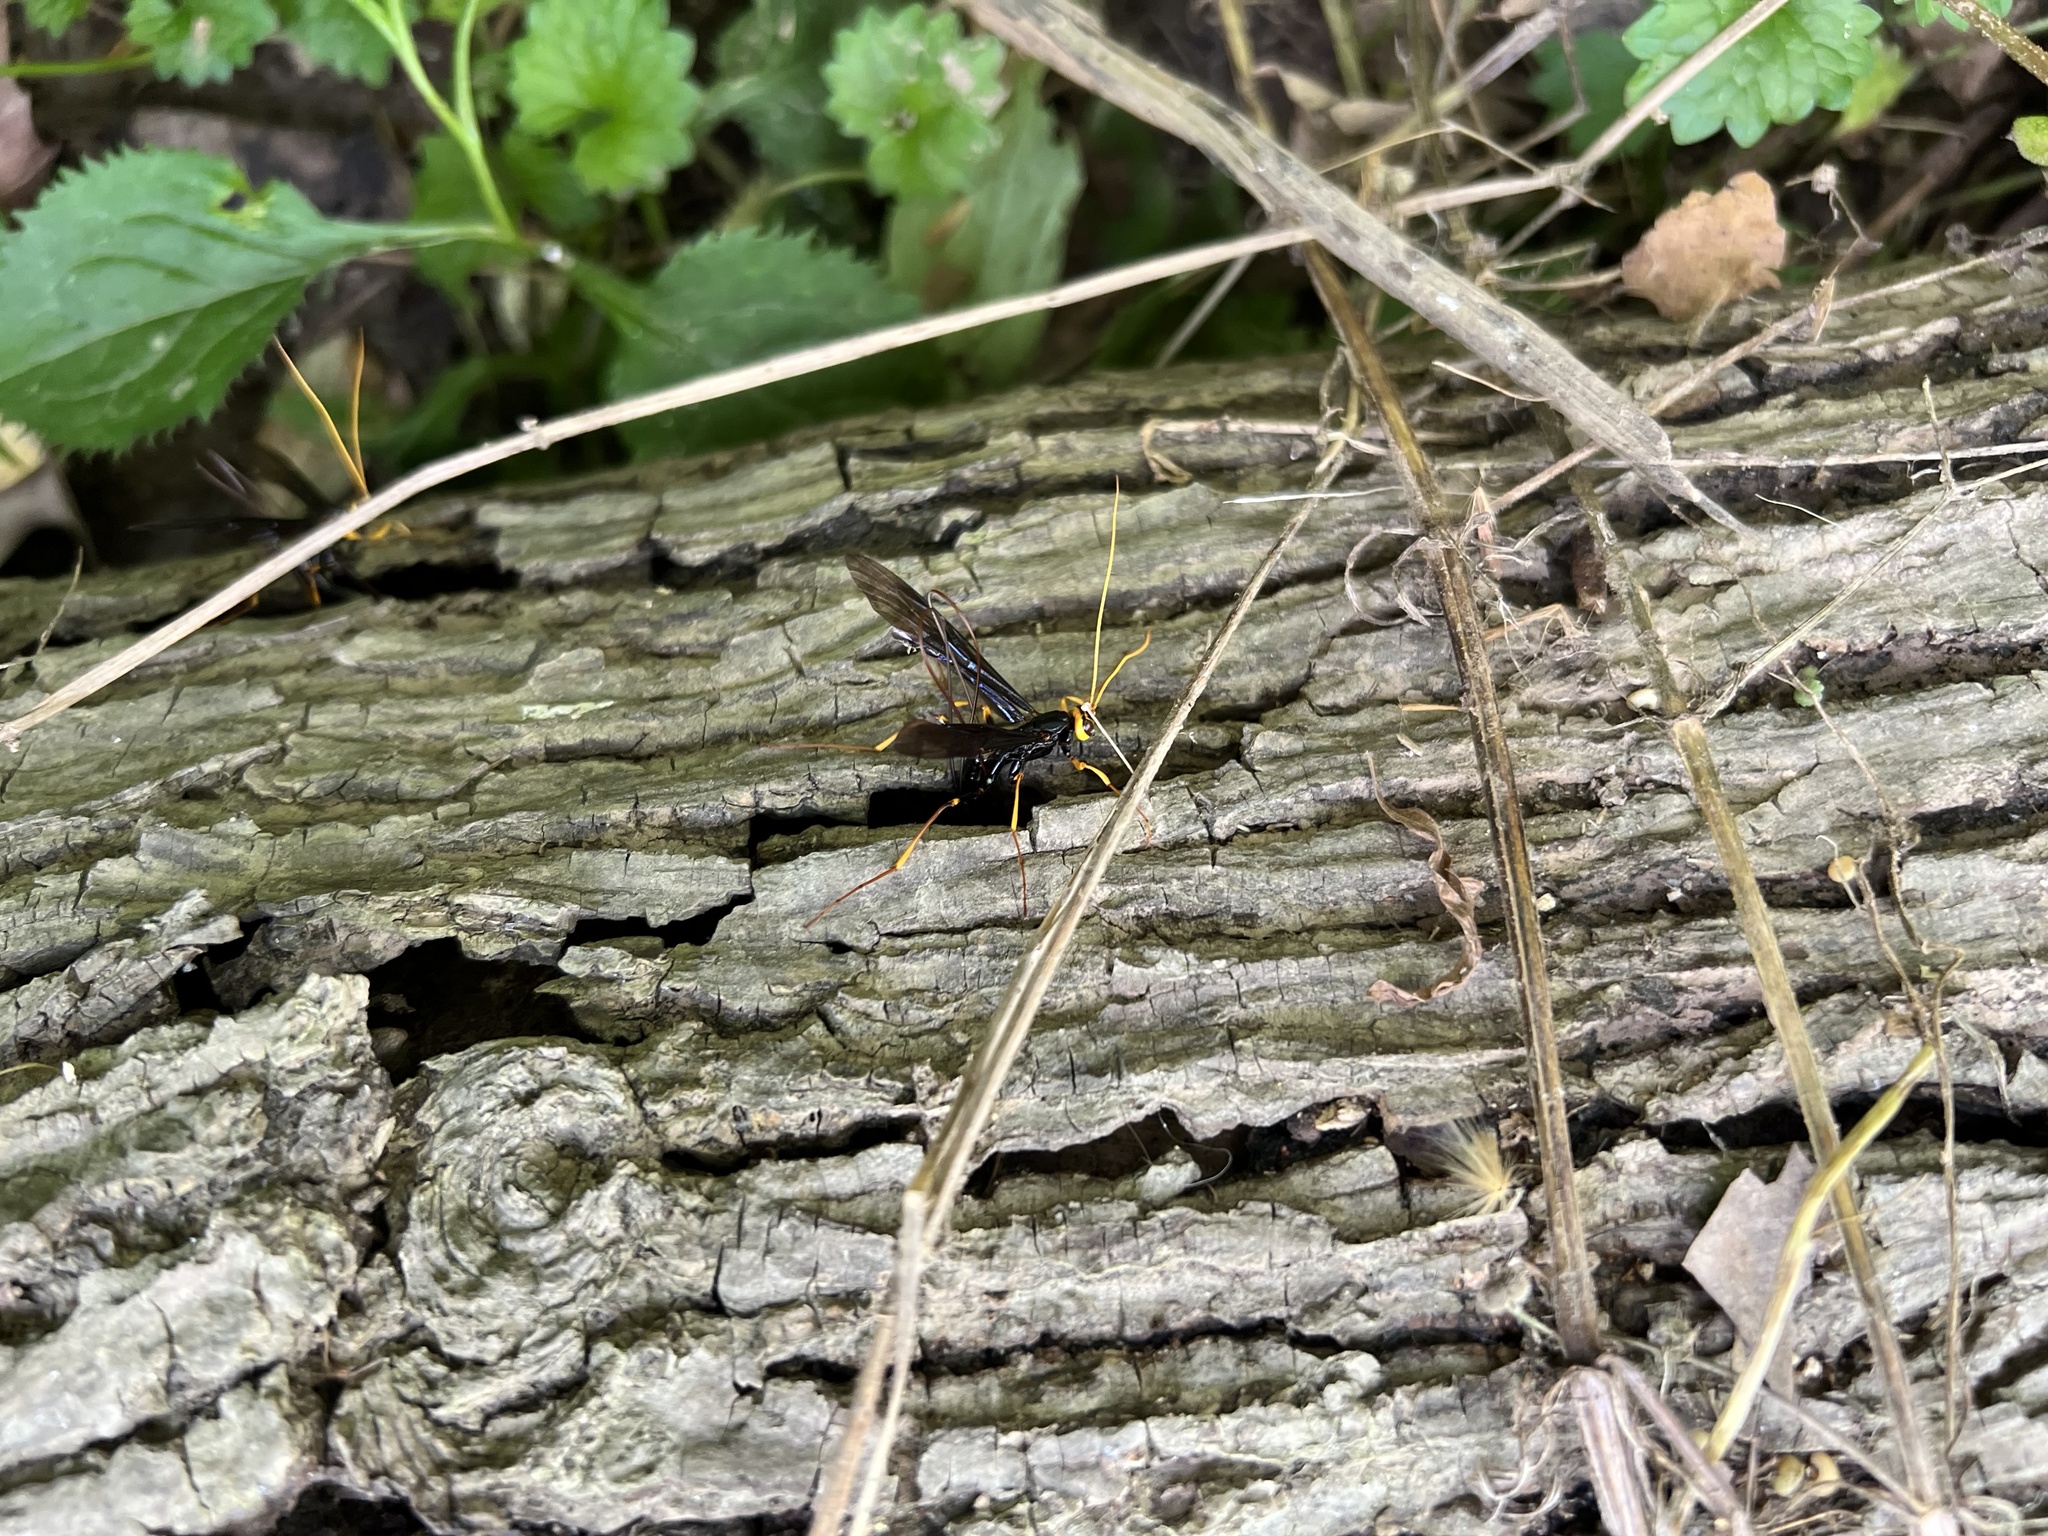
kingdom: Animalia
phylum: Arthropoda
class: Insecta
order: Hymenoptera
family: Ichneumonidae
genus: Megarhyssa
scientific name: Megarhyssa atrata
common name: Black giant ichneumonid wasp
